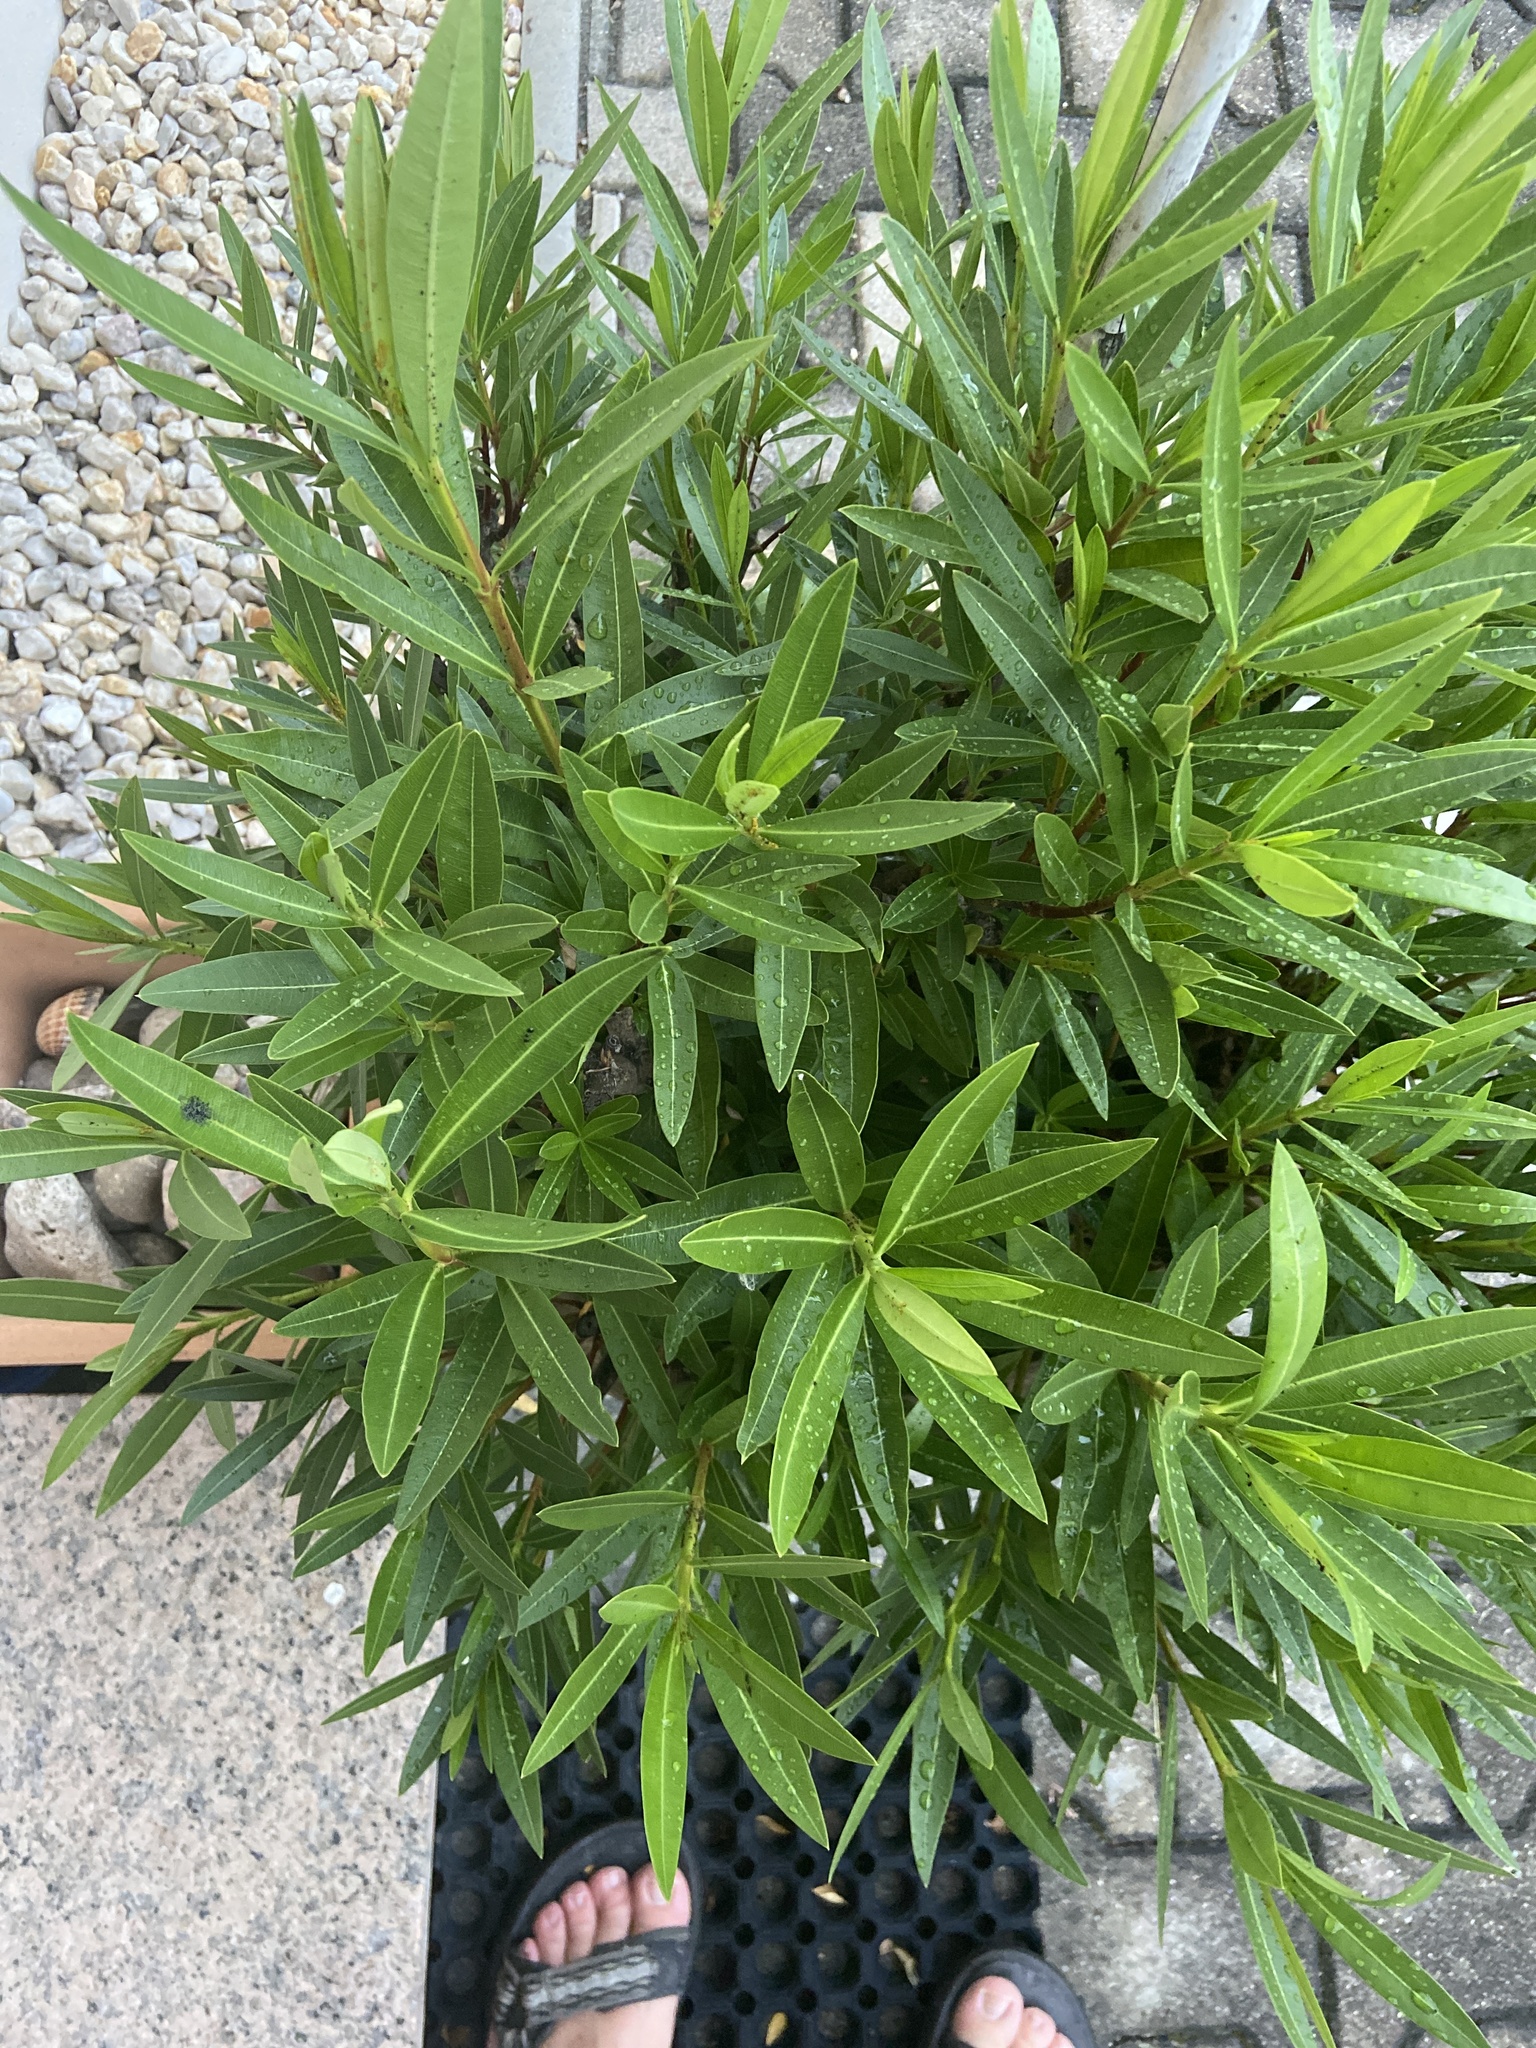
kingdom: Animalia
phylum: Arthropoda
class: Insecta
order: Hemiptera
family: Aphididae
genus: Aphis
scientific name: Aphis nerii
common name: Oleander aphid
